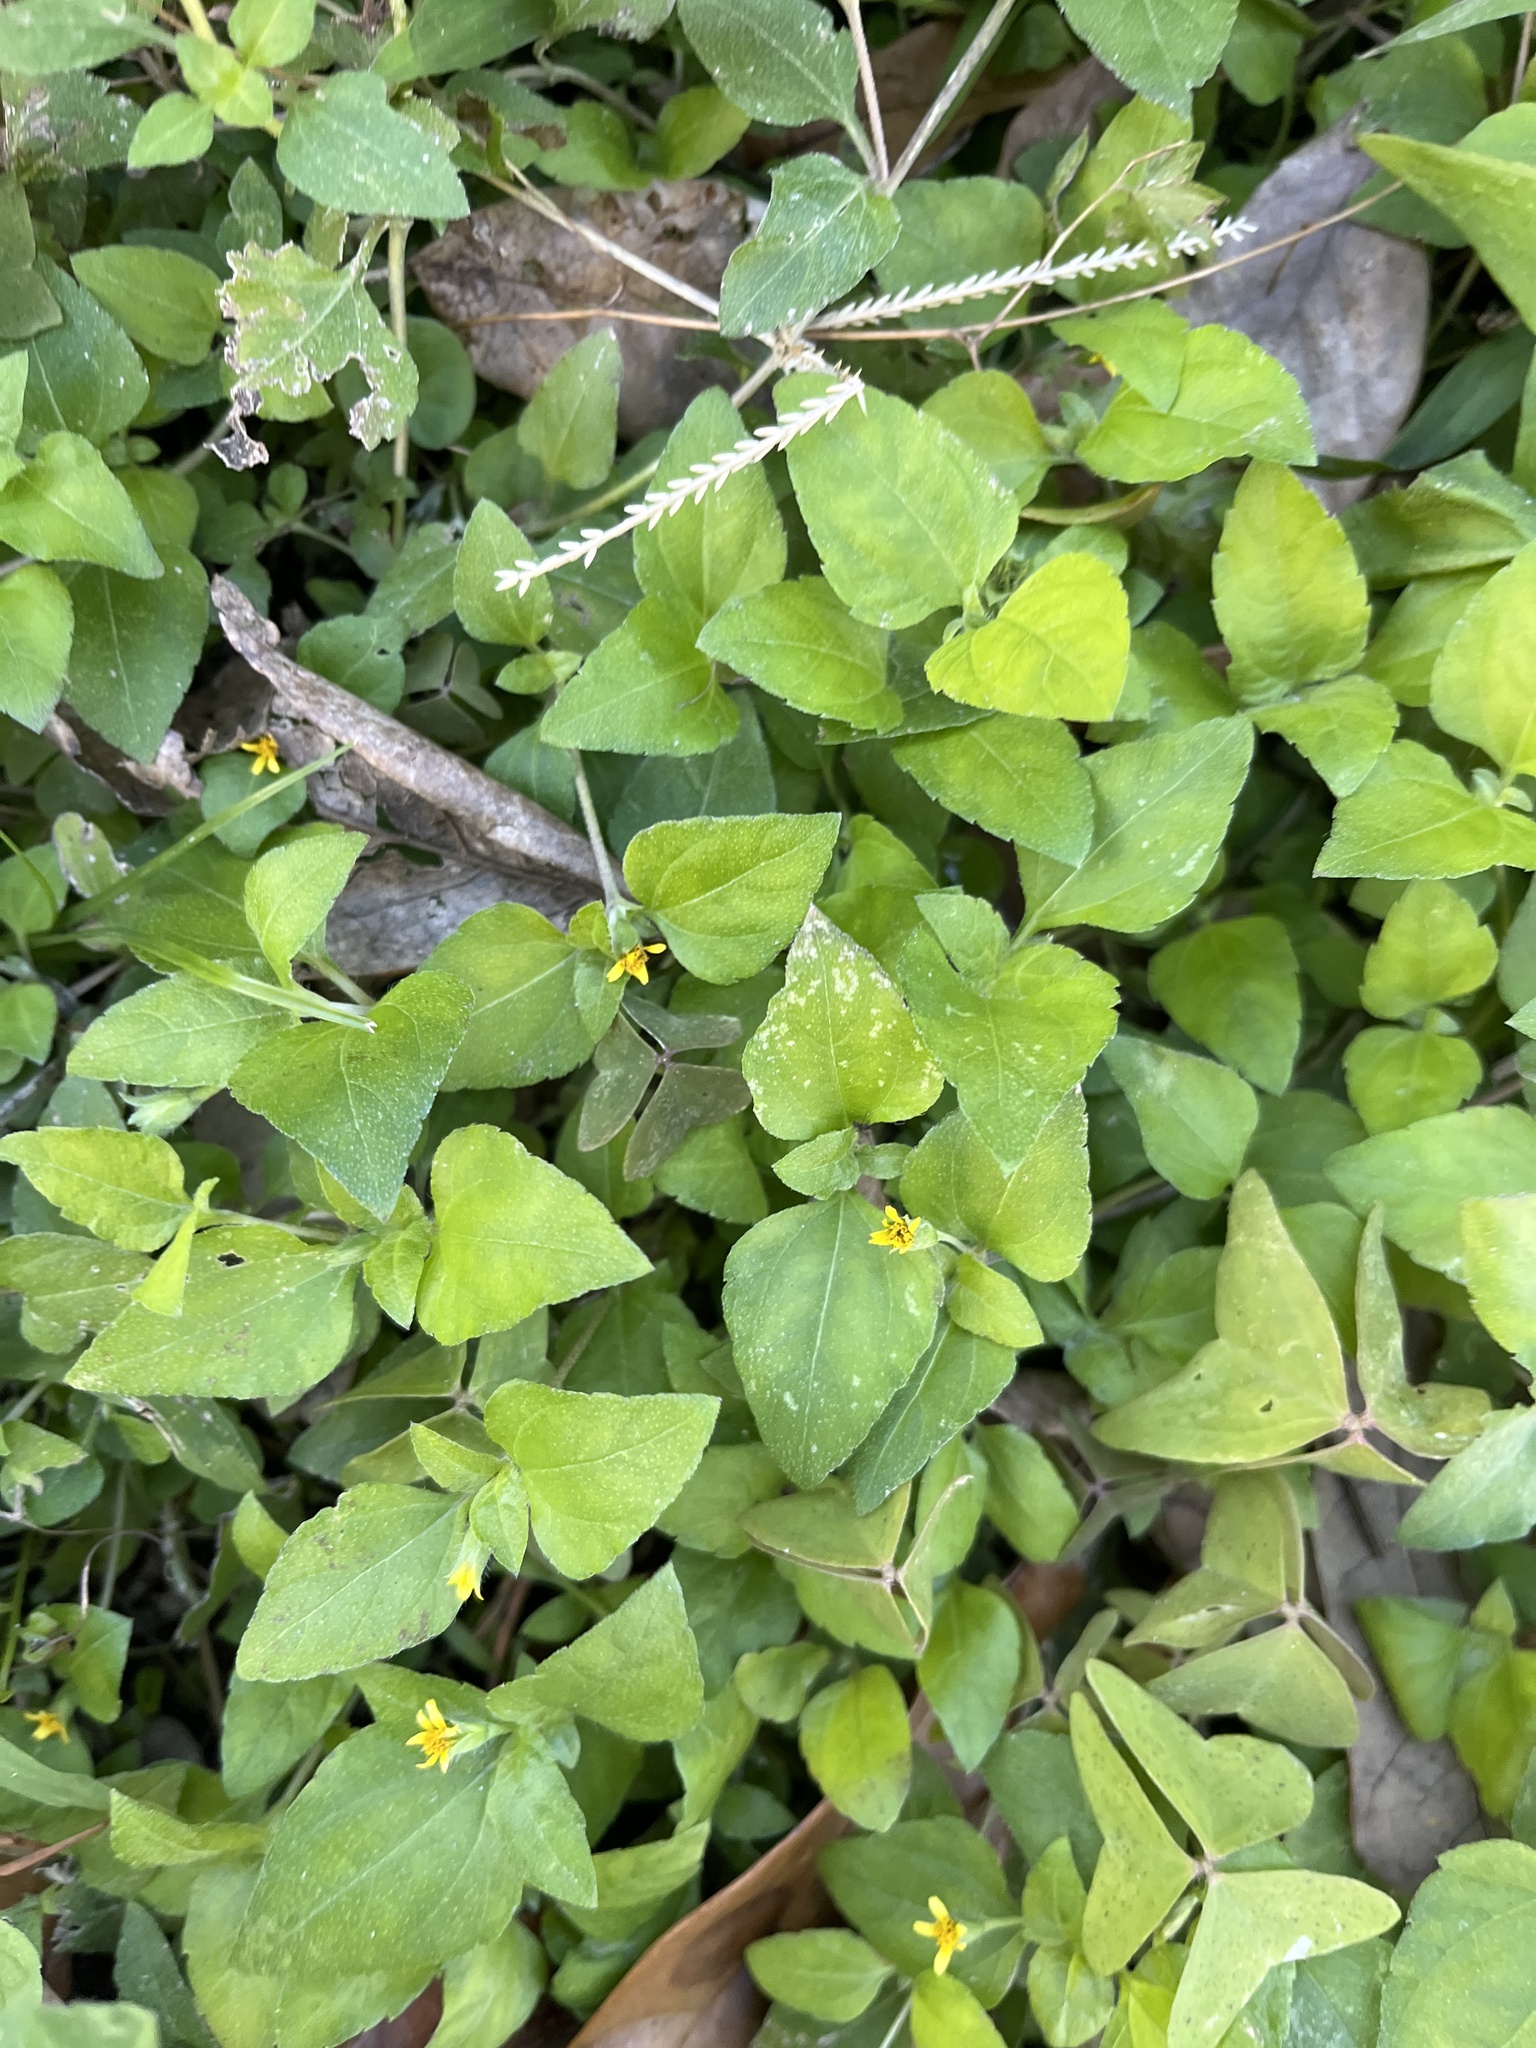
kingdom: Plantae
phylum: Tracheophyta
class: Magnoliopsida
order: Asterales
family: Asteraceae
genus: Calyptocarpus
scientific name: Calyptocarpus vialis
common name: Straggler daisy
